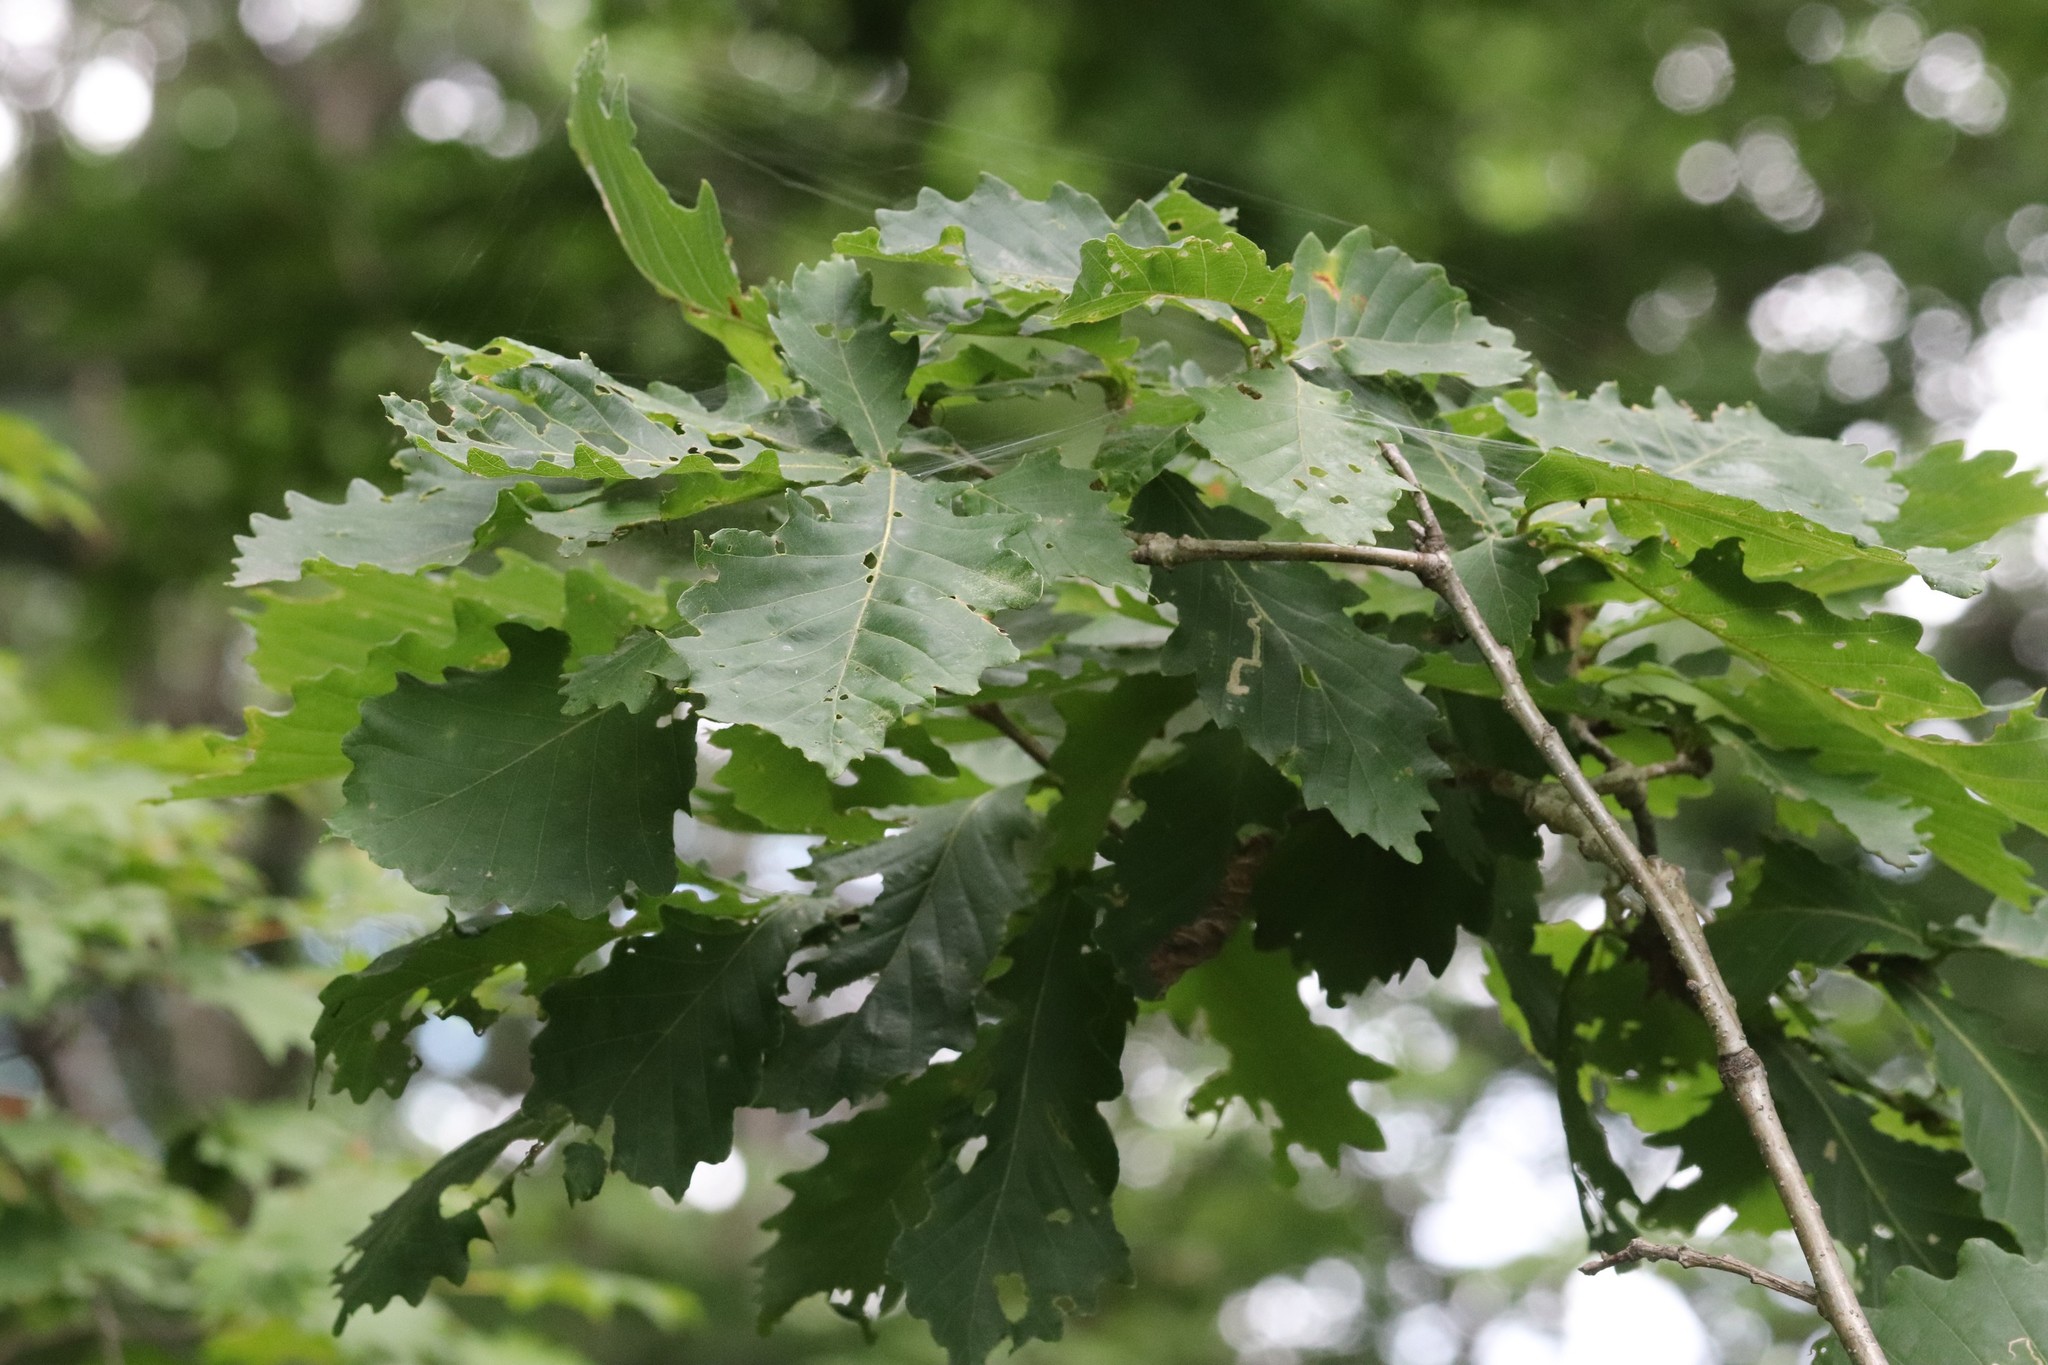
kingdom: Plantae
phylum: Tracheophyta
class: Magnoliopsida
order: Fagales
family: Fagaceae
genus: Quercus
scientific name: Quercus mongolica
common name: Mongolian oak
